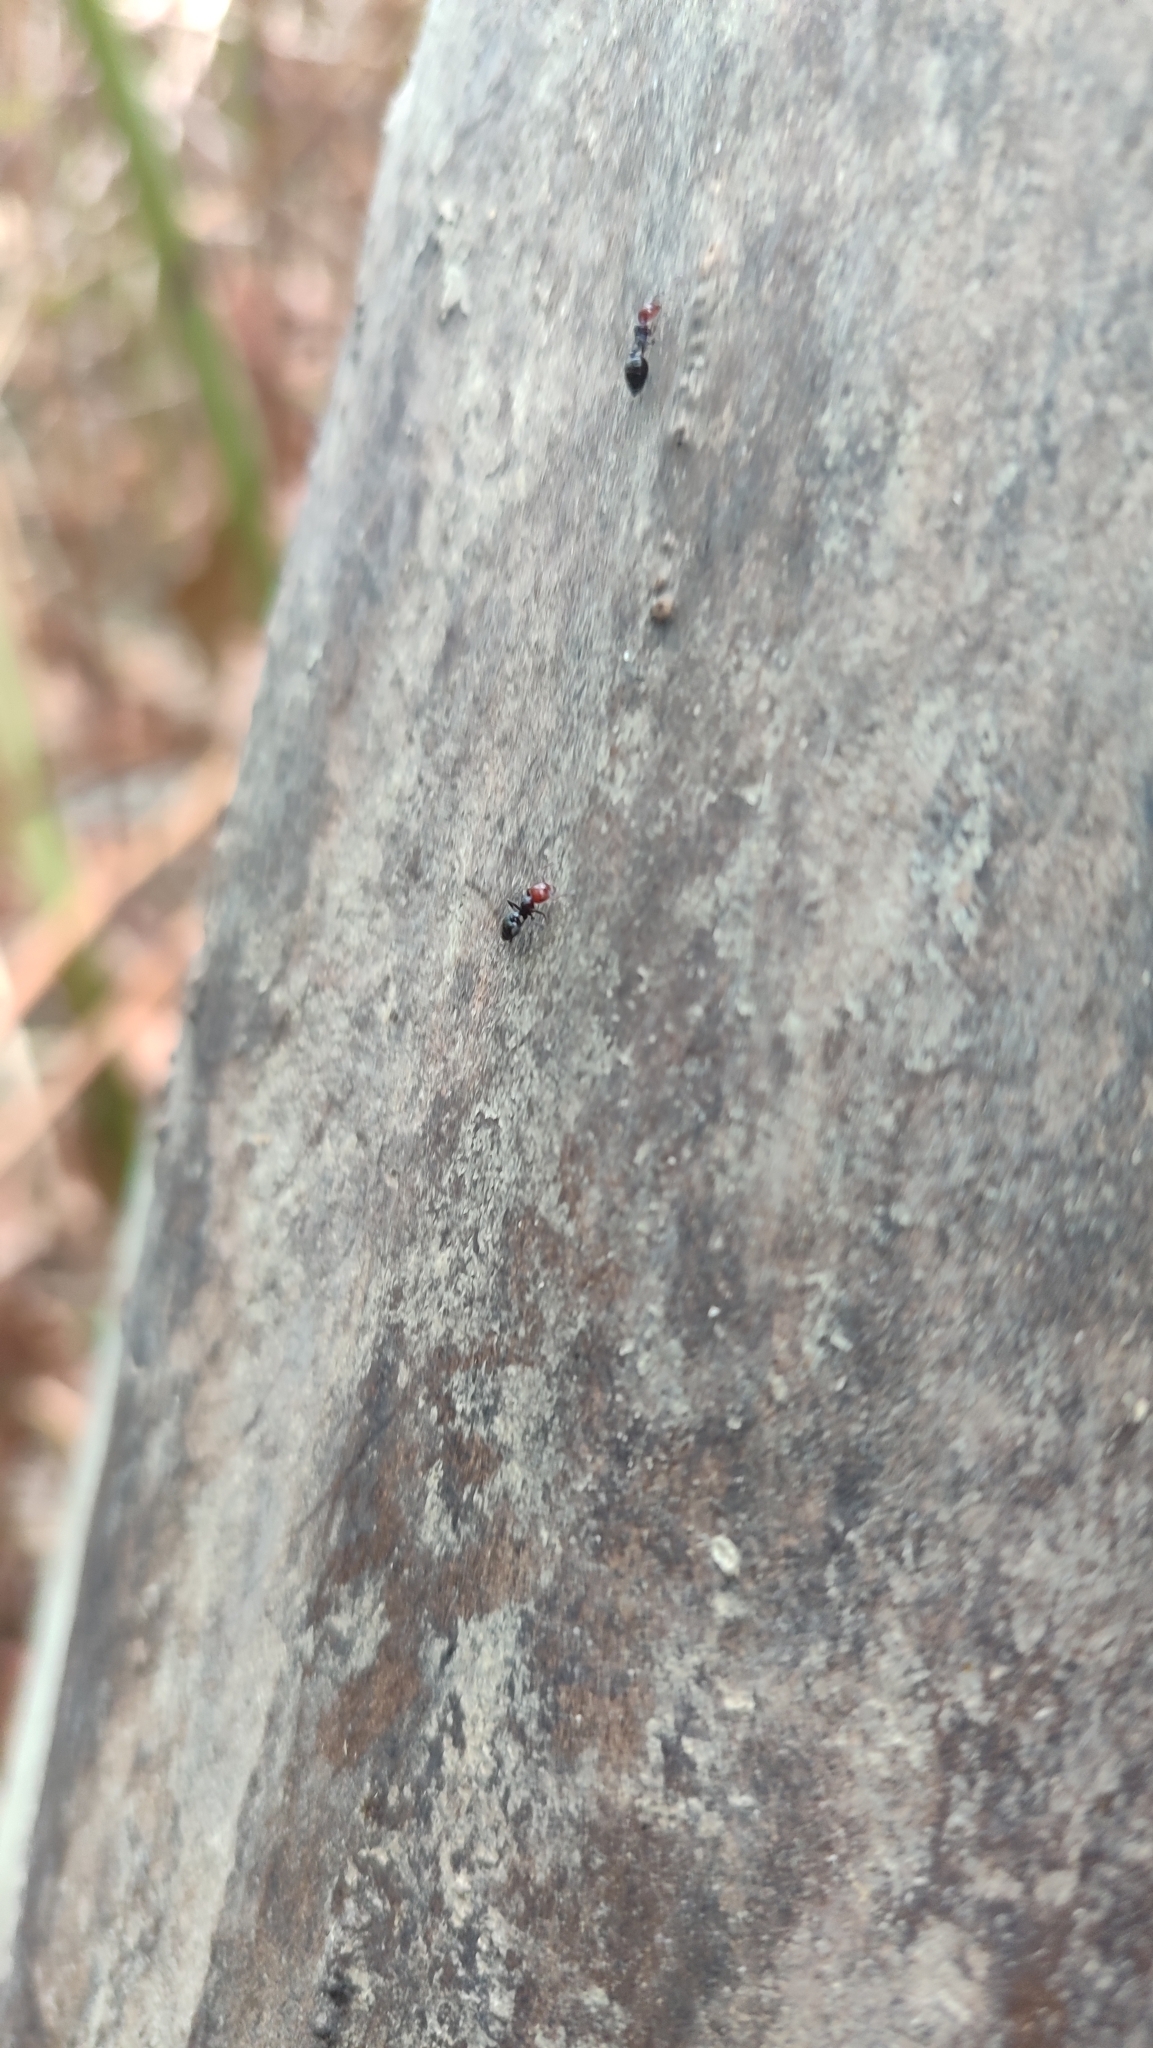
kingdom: Animalia
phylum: Arthropoda
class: Insecta
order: Hymenoptera
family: Formicidae
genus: Crematogaster
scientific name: Crematogaster scutellaris
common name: Fourmi du liège
